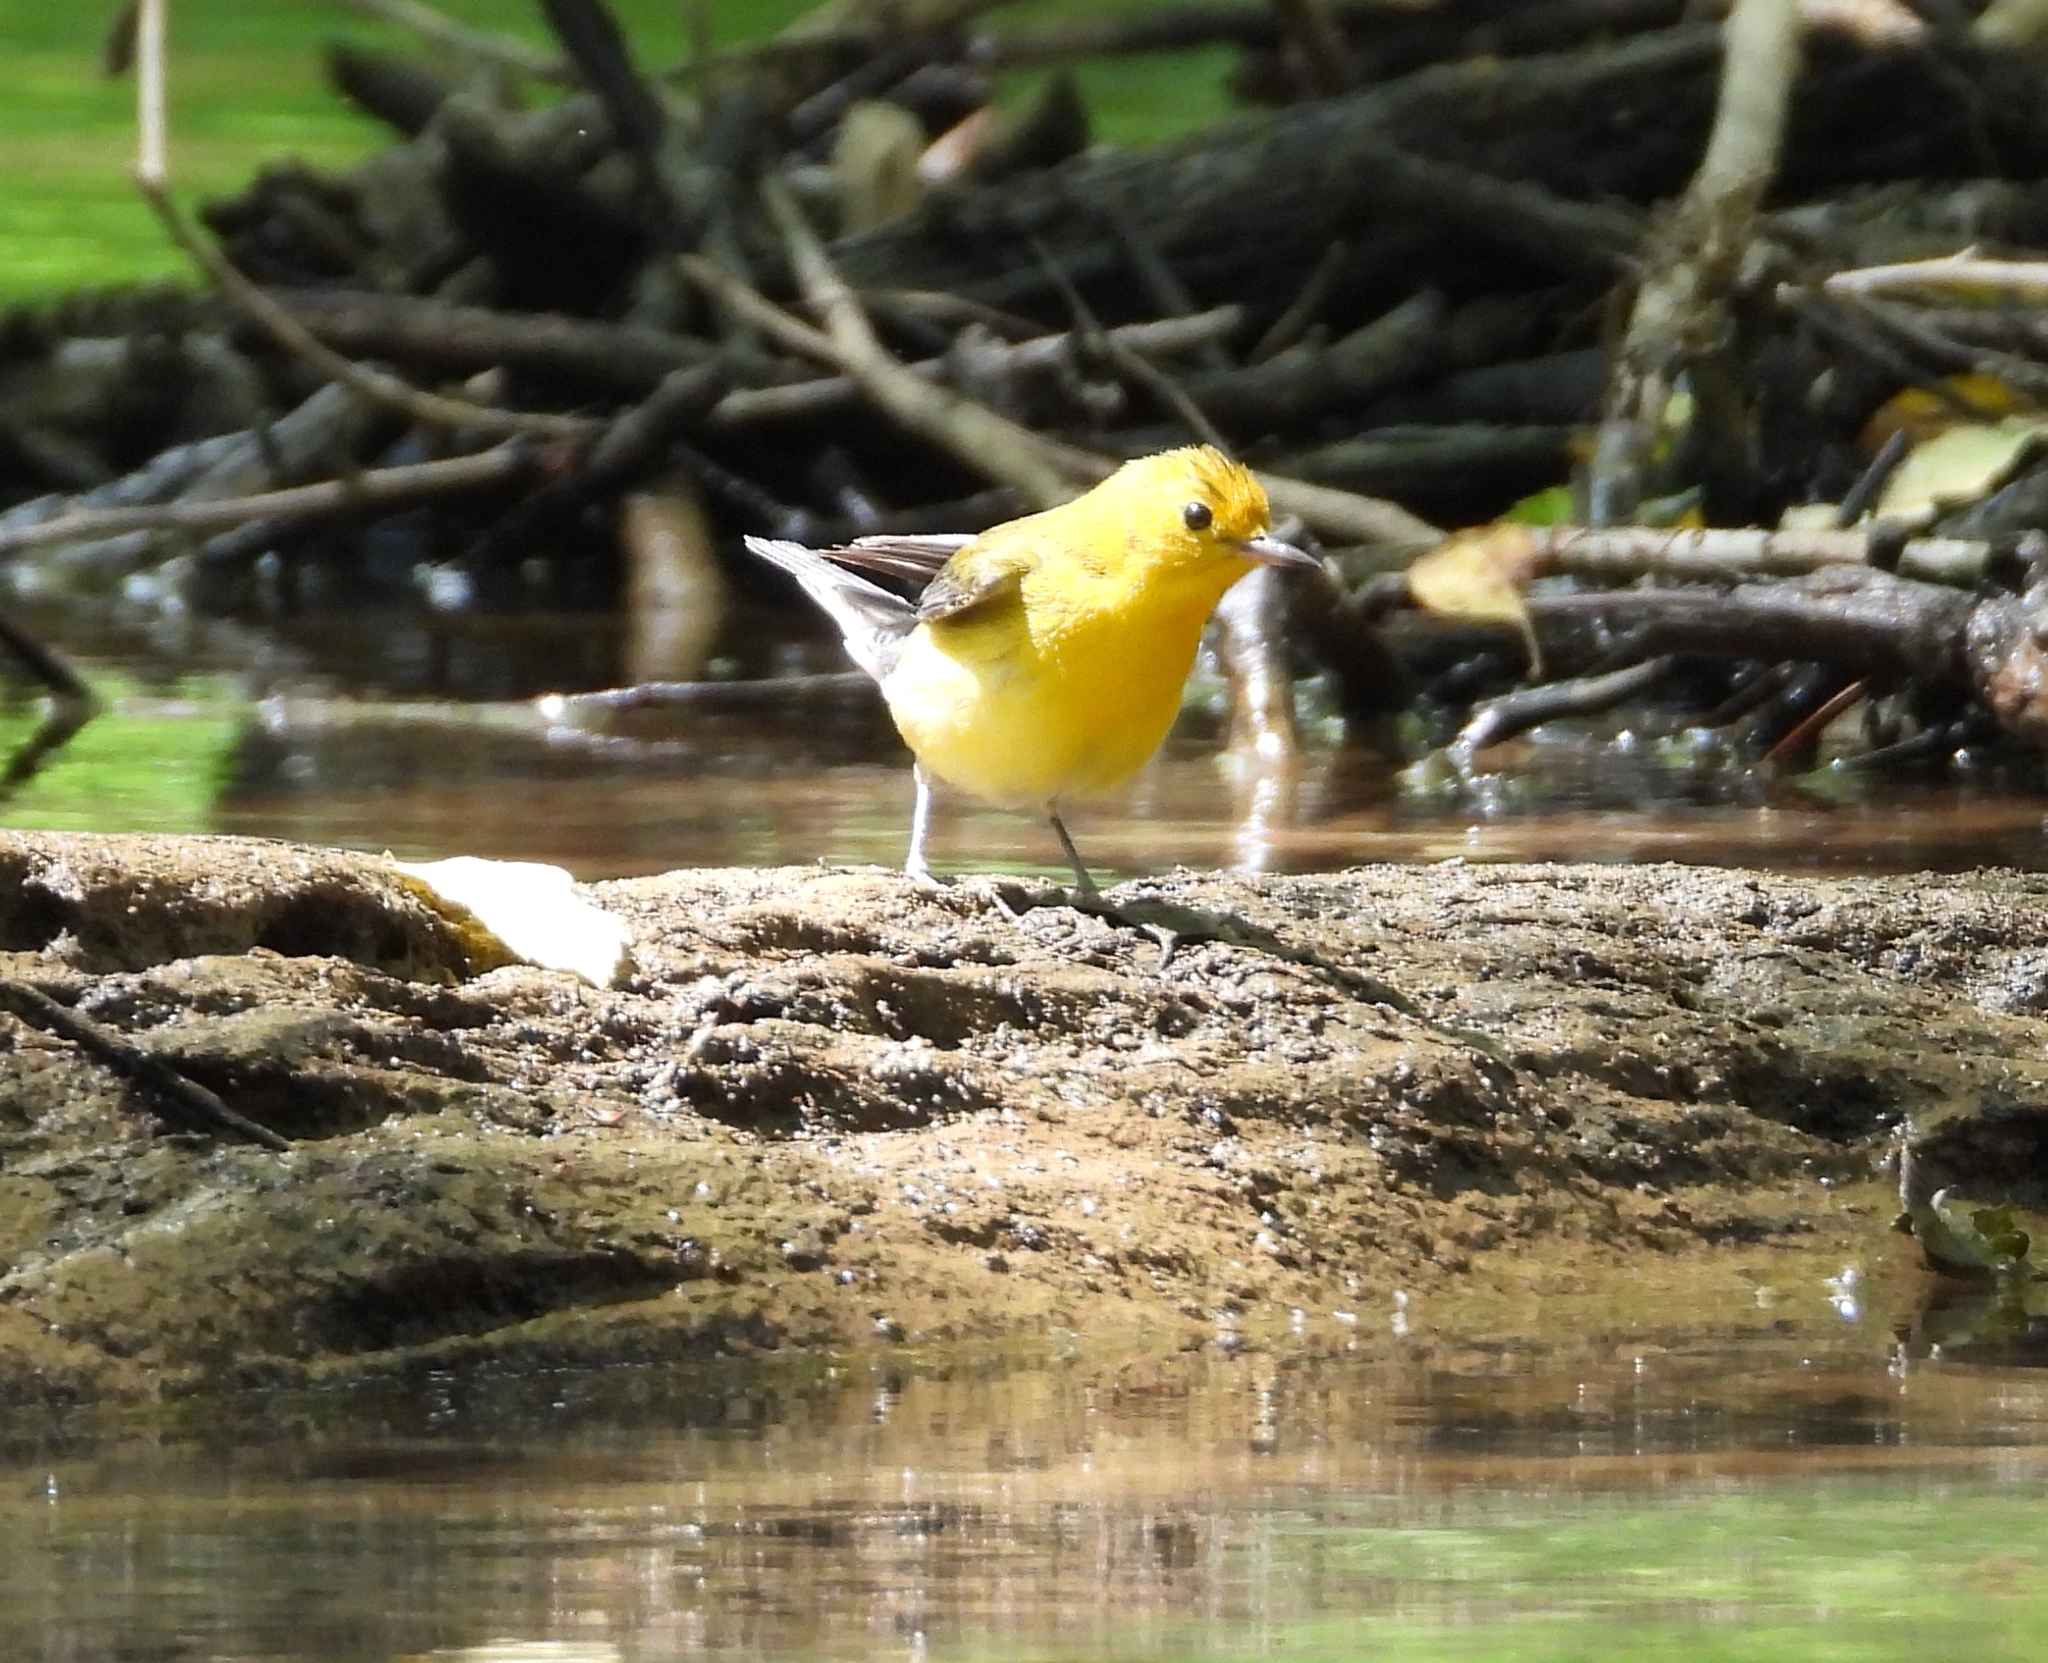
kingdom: Animalia
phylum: Chordata
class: Aves
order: Passeriformes
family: Parulidae
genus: Protonotaria
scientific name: Protonotaria citrea
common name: Prothonotary warbler
